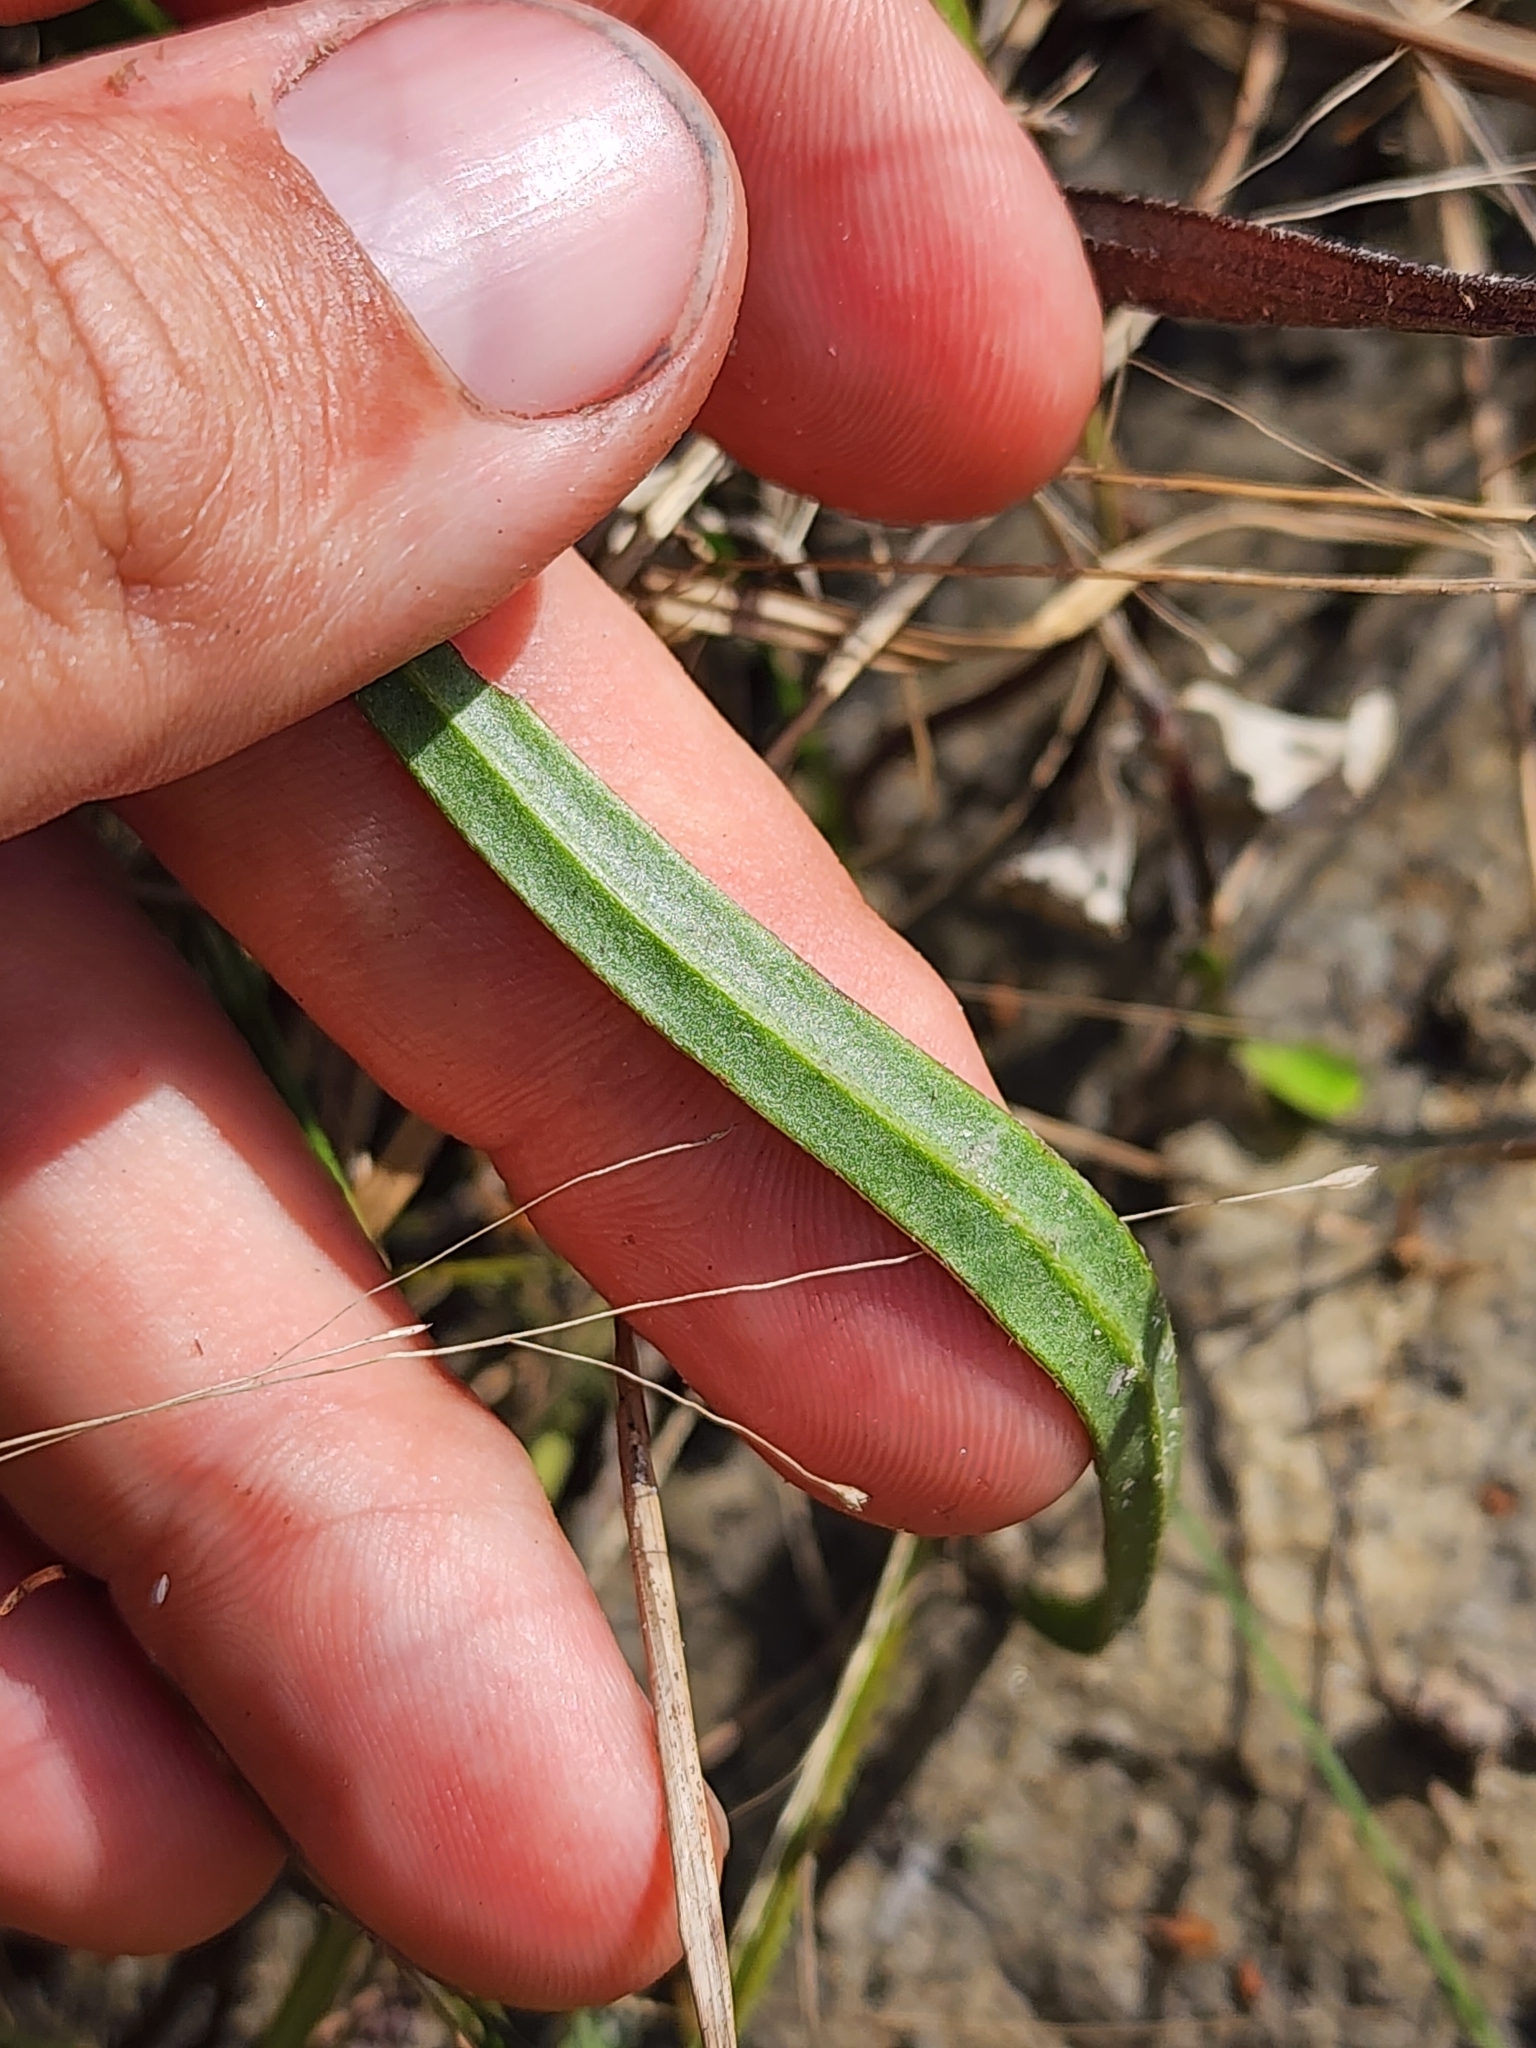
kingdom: Plantae
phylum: Tracheophyta
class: Magnoliopsida
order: Asterales
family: Asteraceae
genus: Rudbeckia
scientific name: Rudbeckia graminifolia
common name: Grass-leaf coneflower
